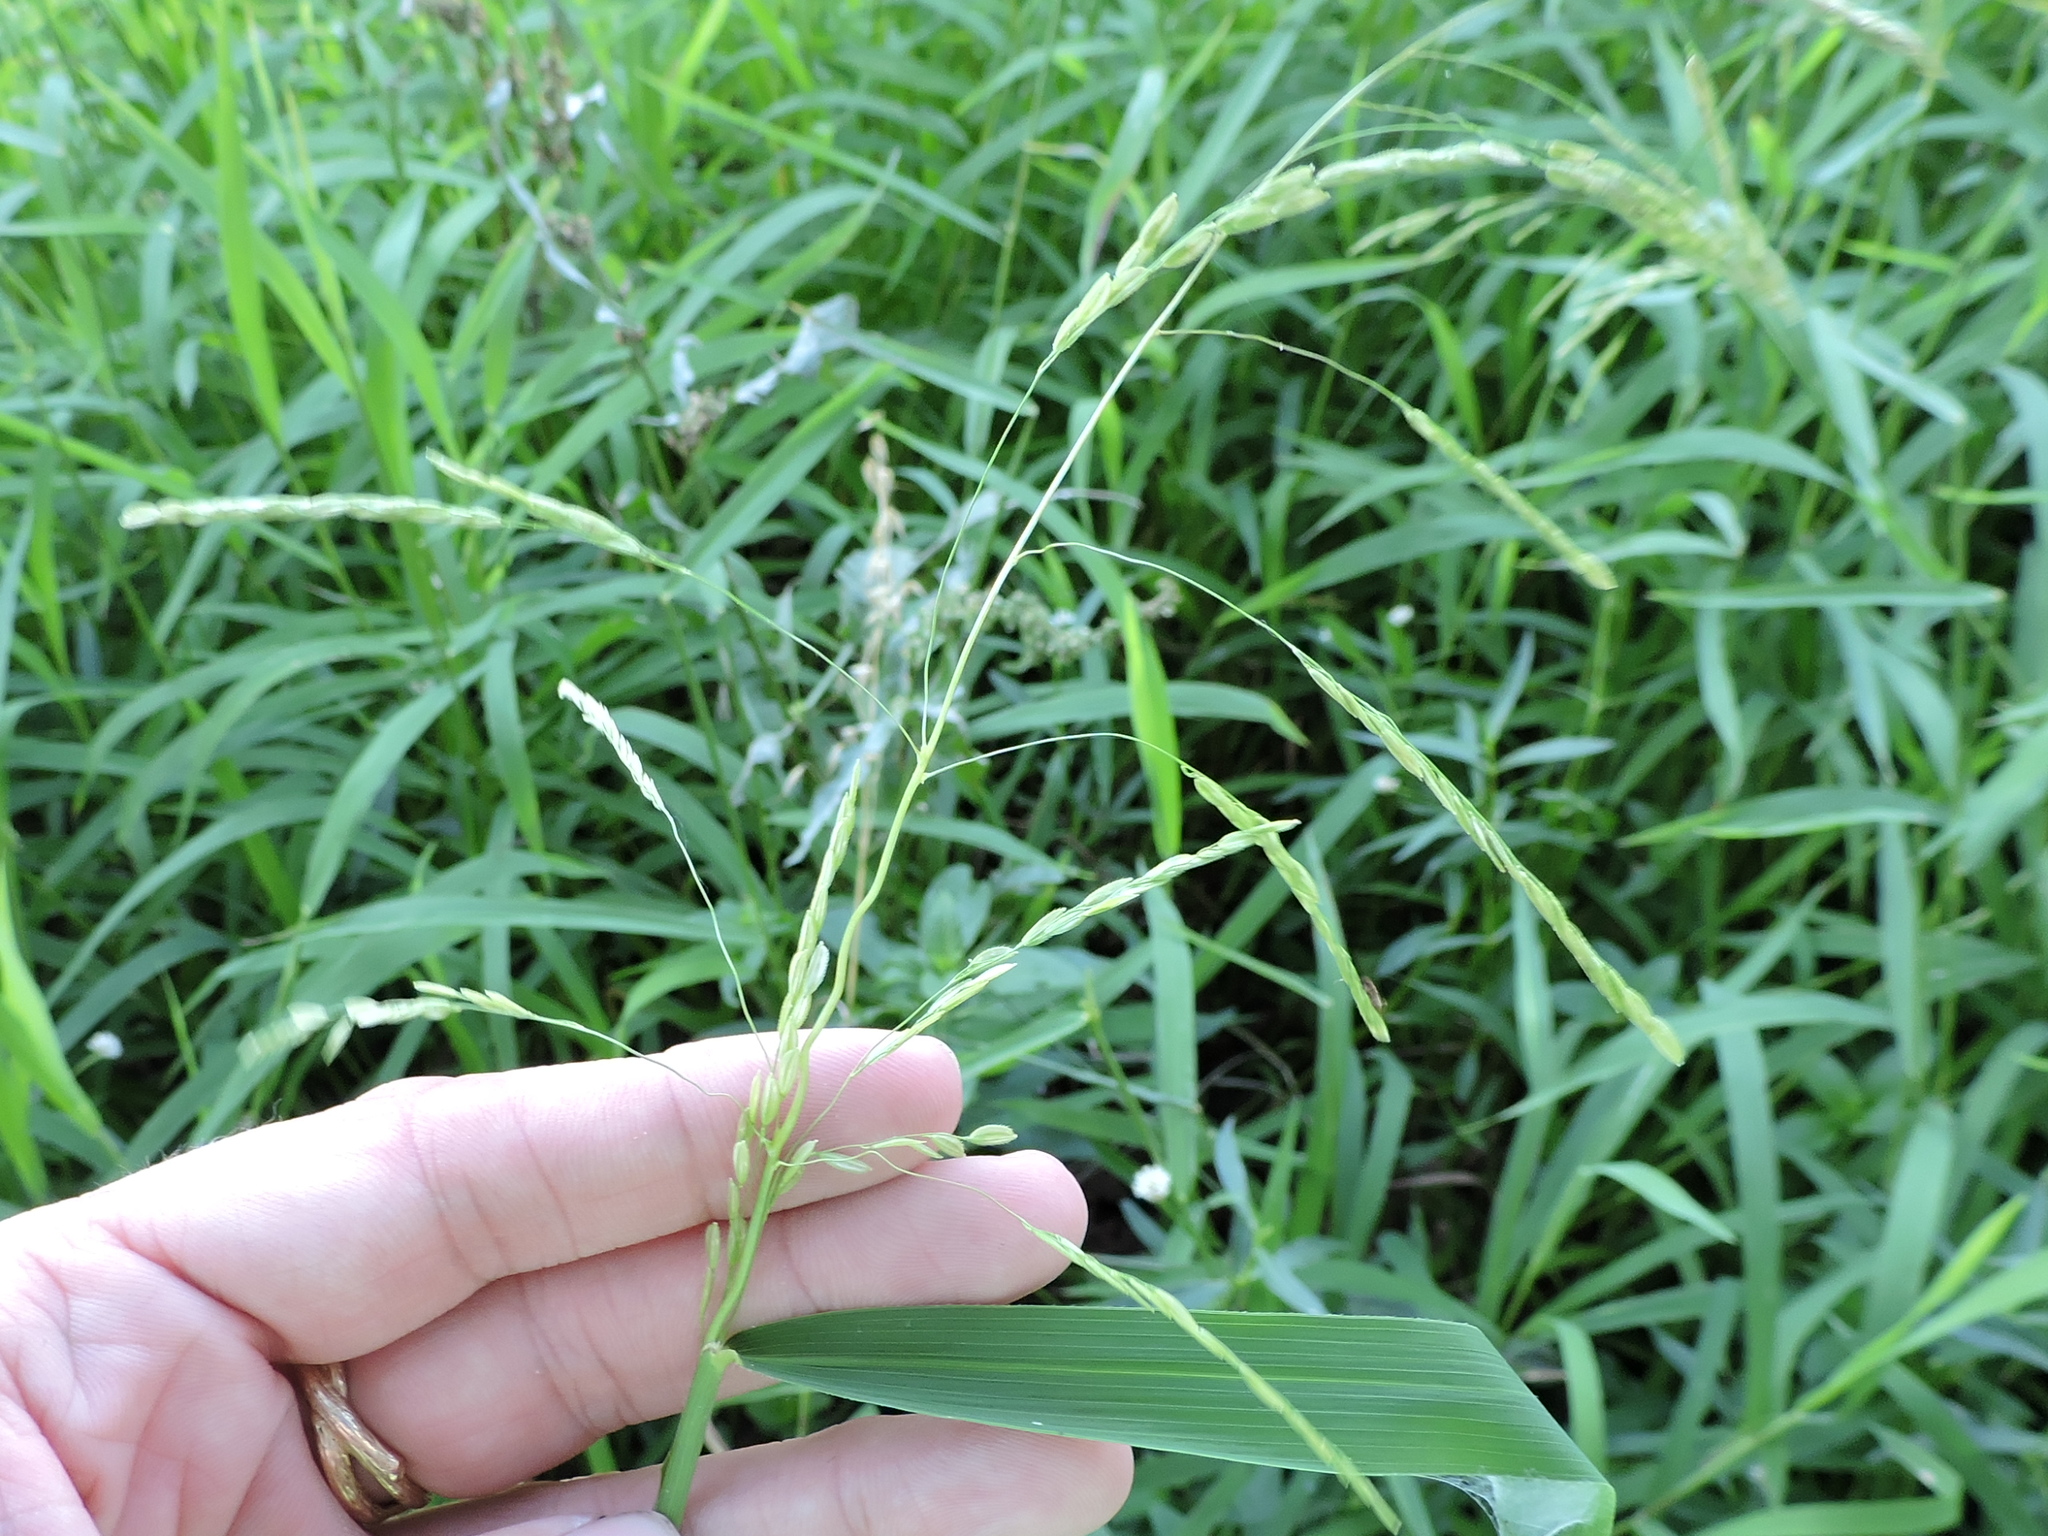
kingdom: Plantae
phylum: Tracheophyta
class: Liliopsida
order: Poales
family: Poaceae
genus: Leersia
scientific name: Leersia oryzoides
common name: Cut-grass
